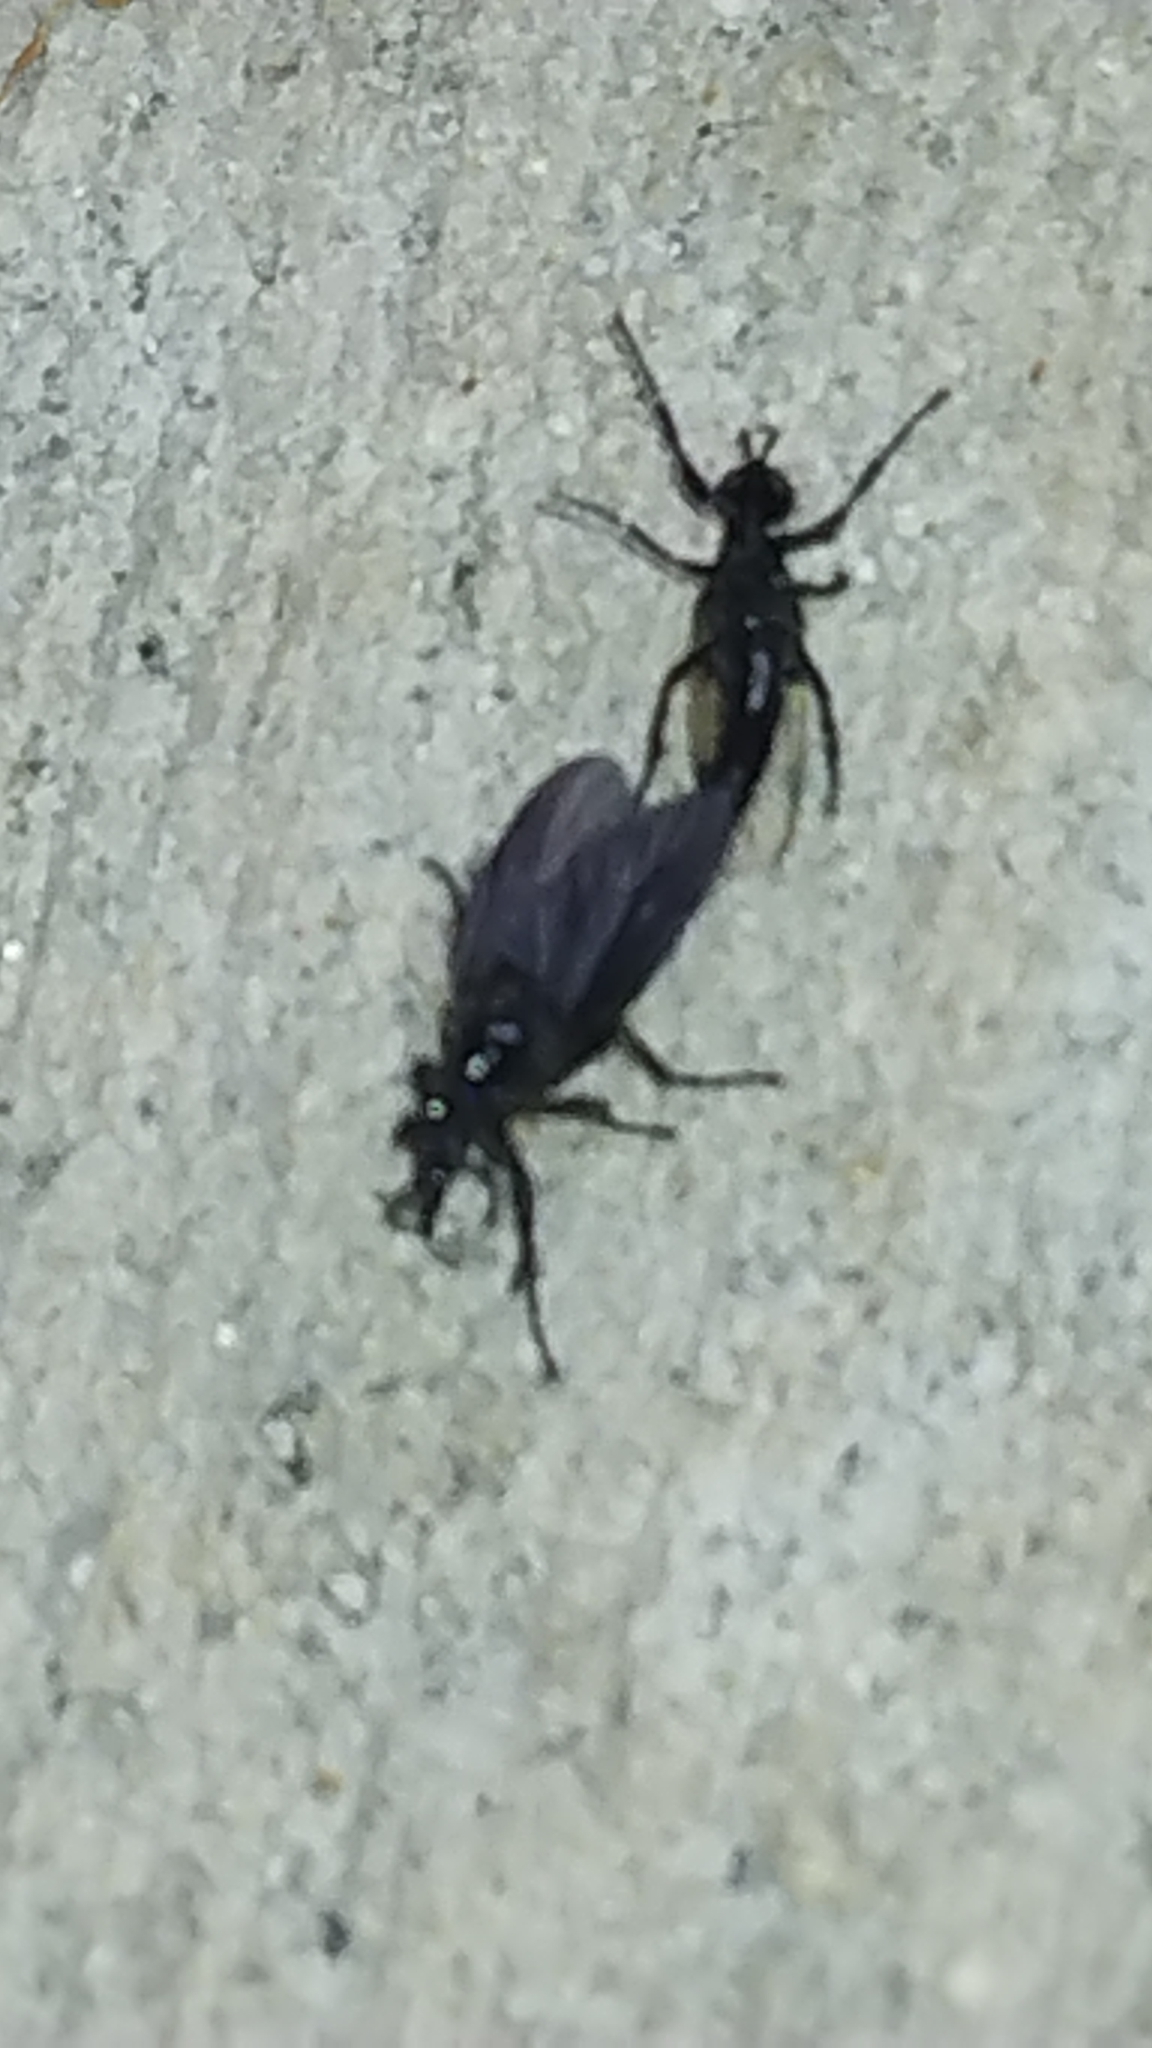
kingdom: Animalia
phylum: Arthropoda
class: Insecta
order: Diptera
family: Bibionidae
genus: Dilophus
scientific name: Dilophus orbatus
